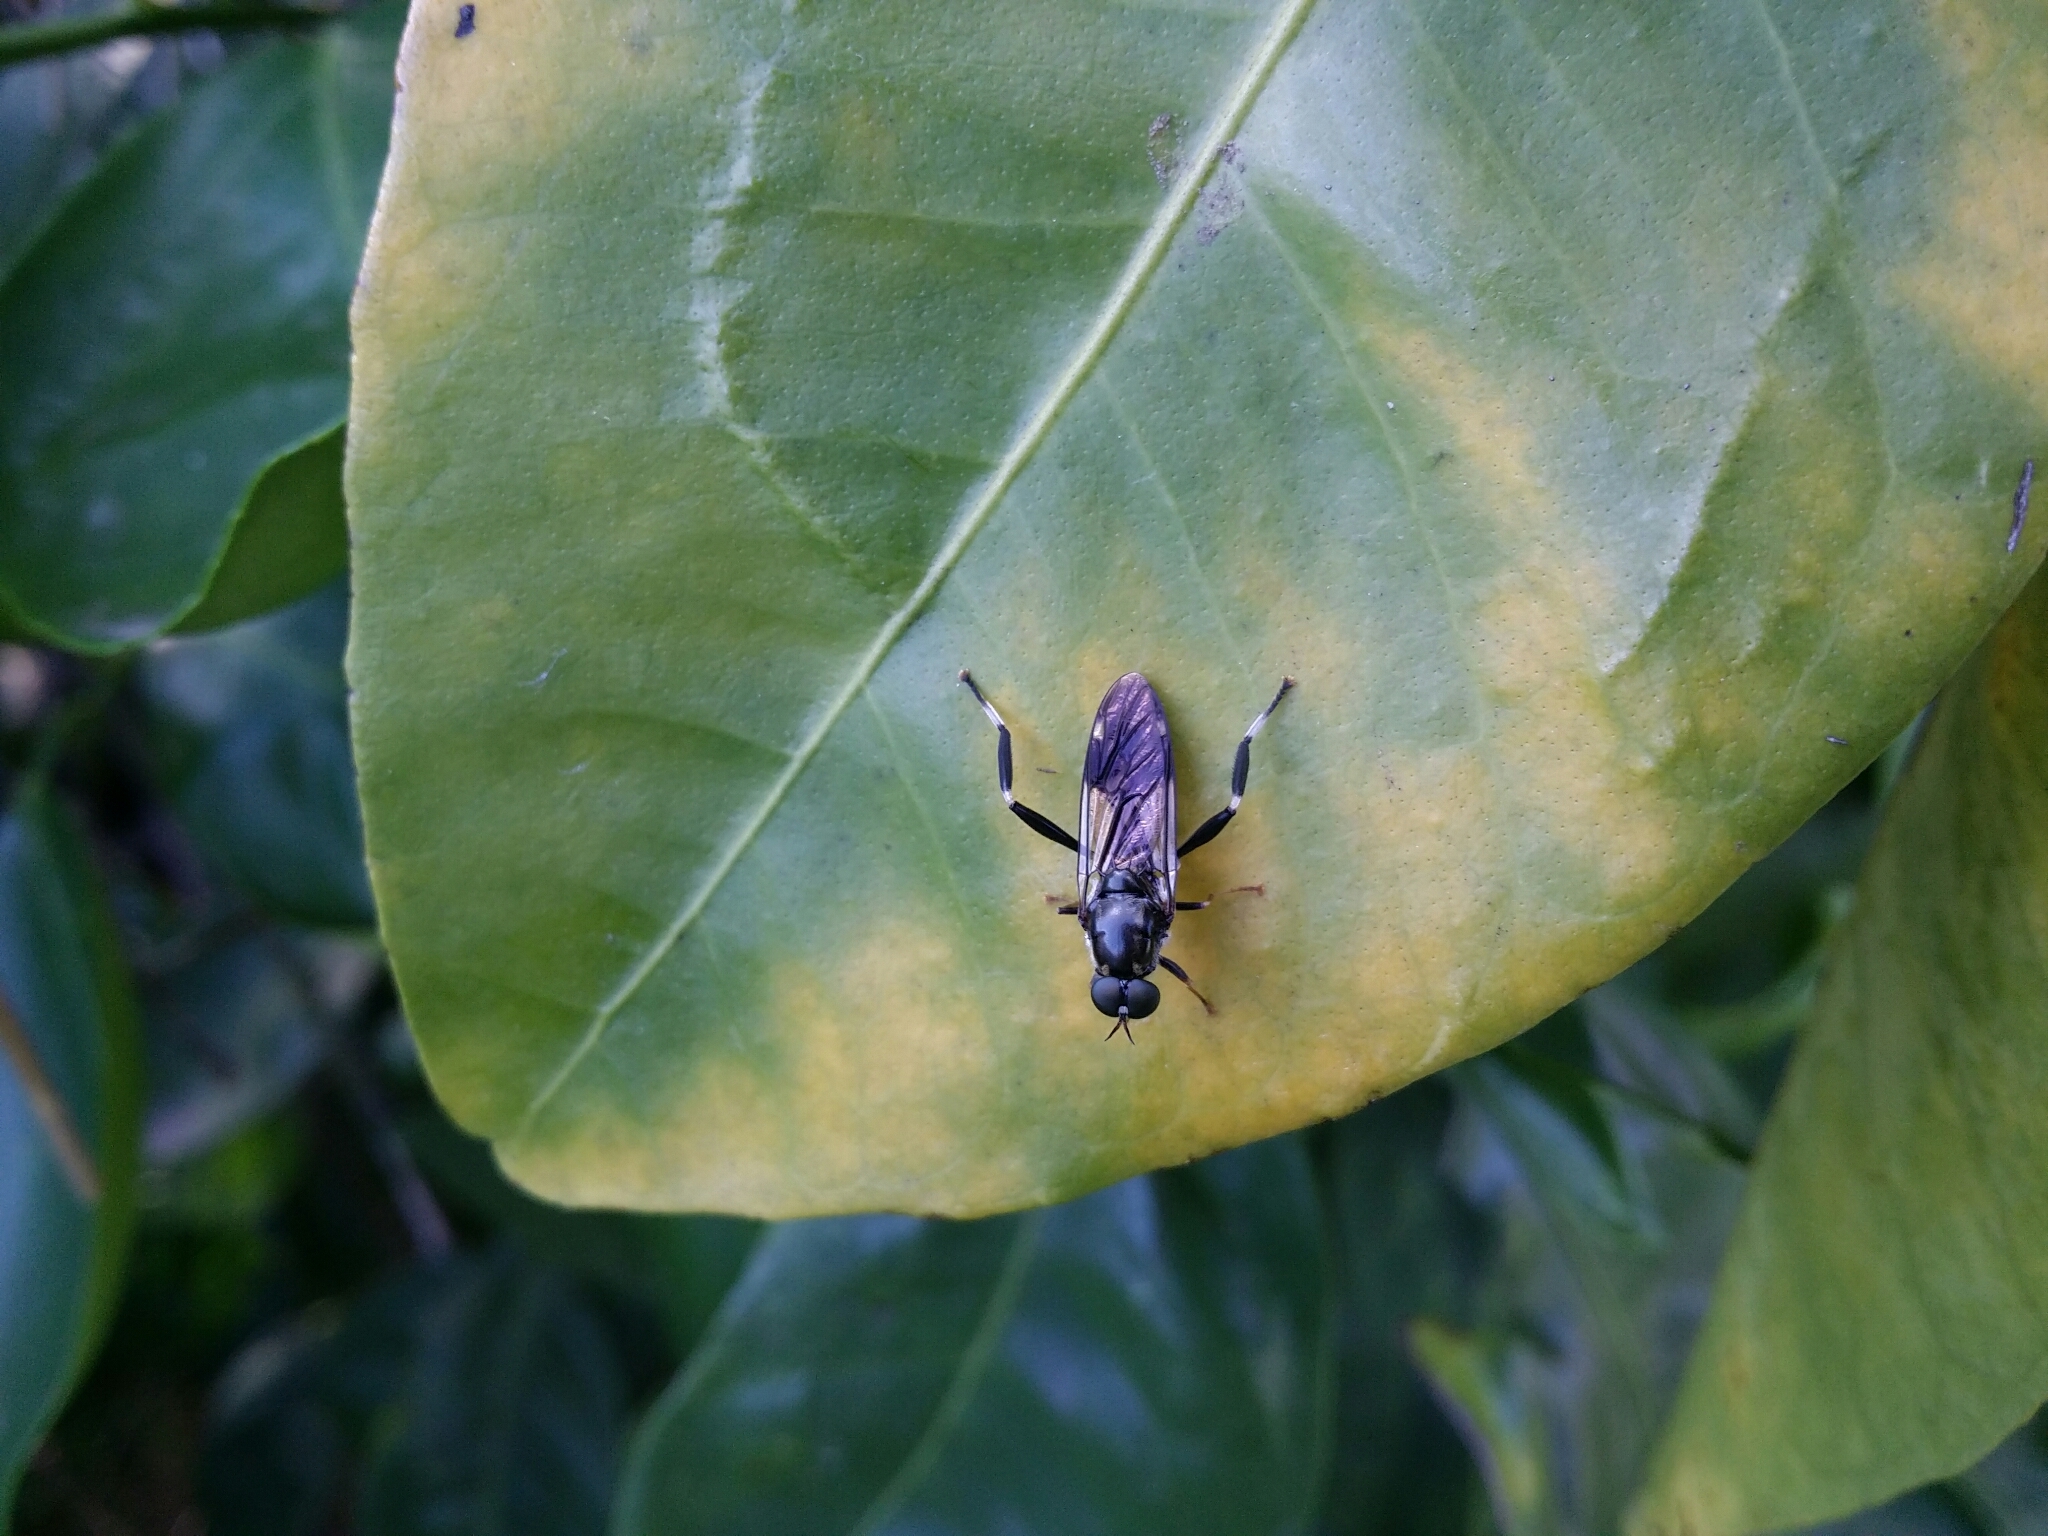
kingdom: Animalia
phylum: Arthropoda
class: Insecta
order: Diptera
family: Stratiomyidae
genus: Exaireta
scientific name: Exaireta spinigera
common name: Blue soldier fly
